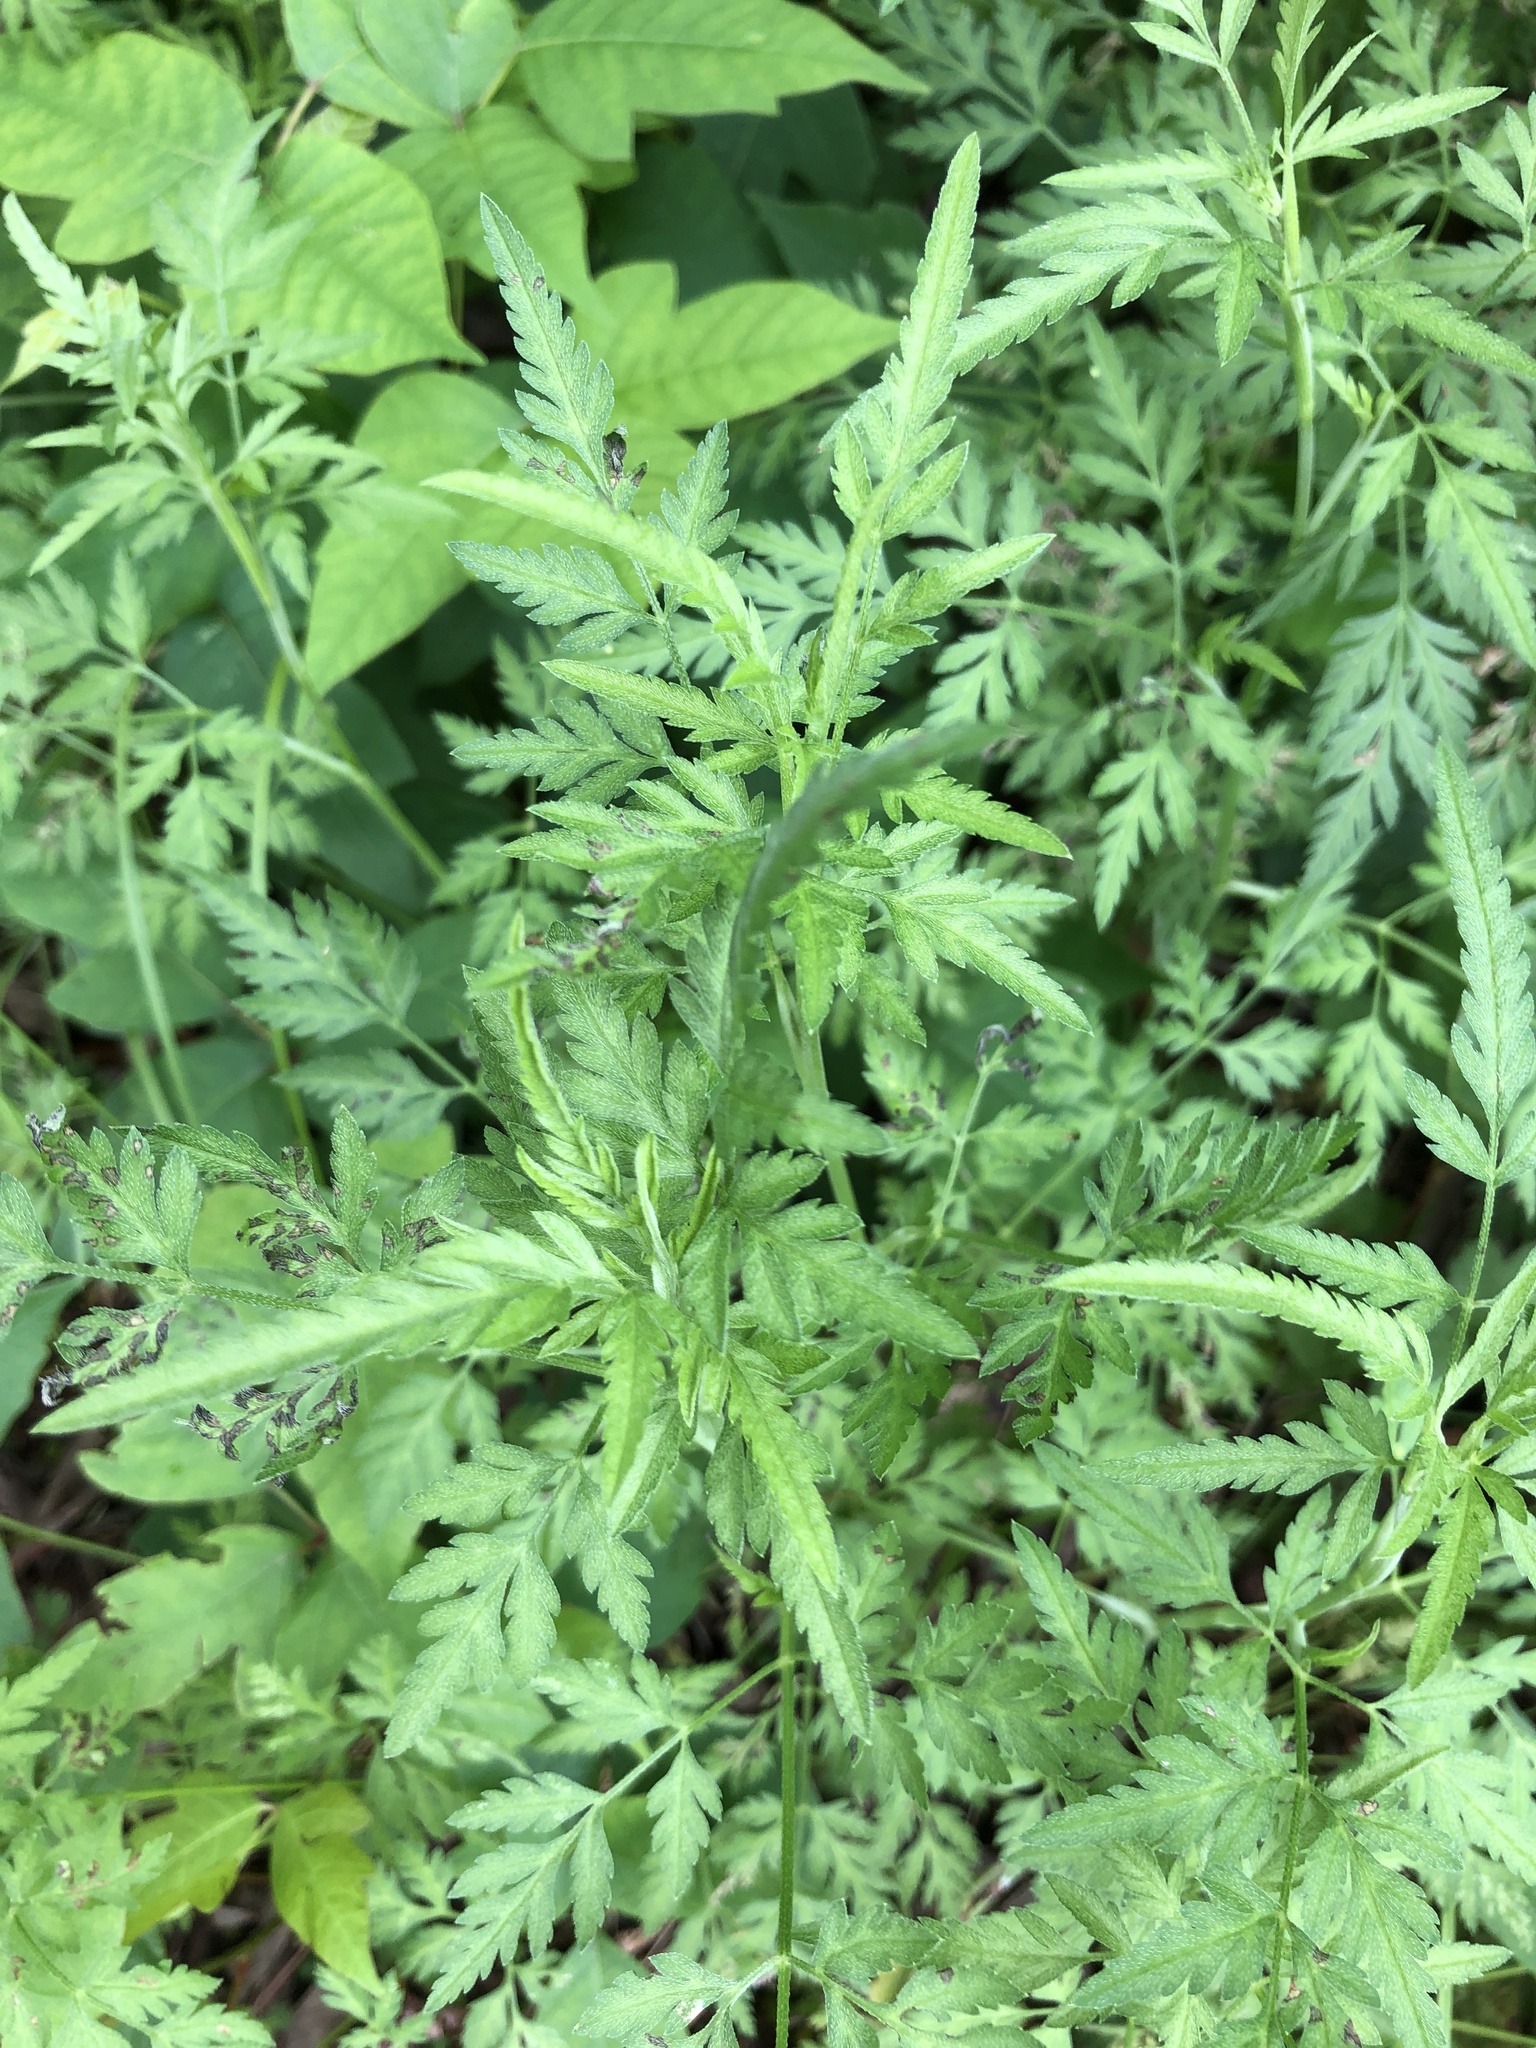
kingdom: Plantae
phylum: Tracheophyta
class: Magnoliopsida
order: Apiales
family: Apiaceae
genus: Torilis
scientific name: Torilis arvensis
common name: Spreading hedge-parsley
